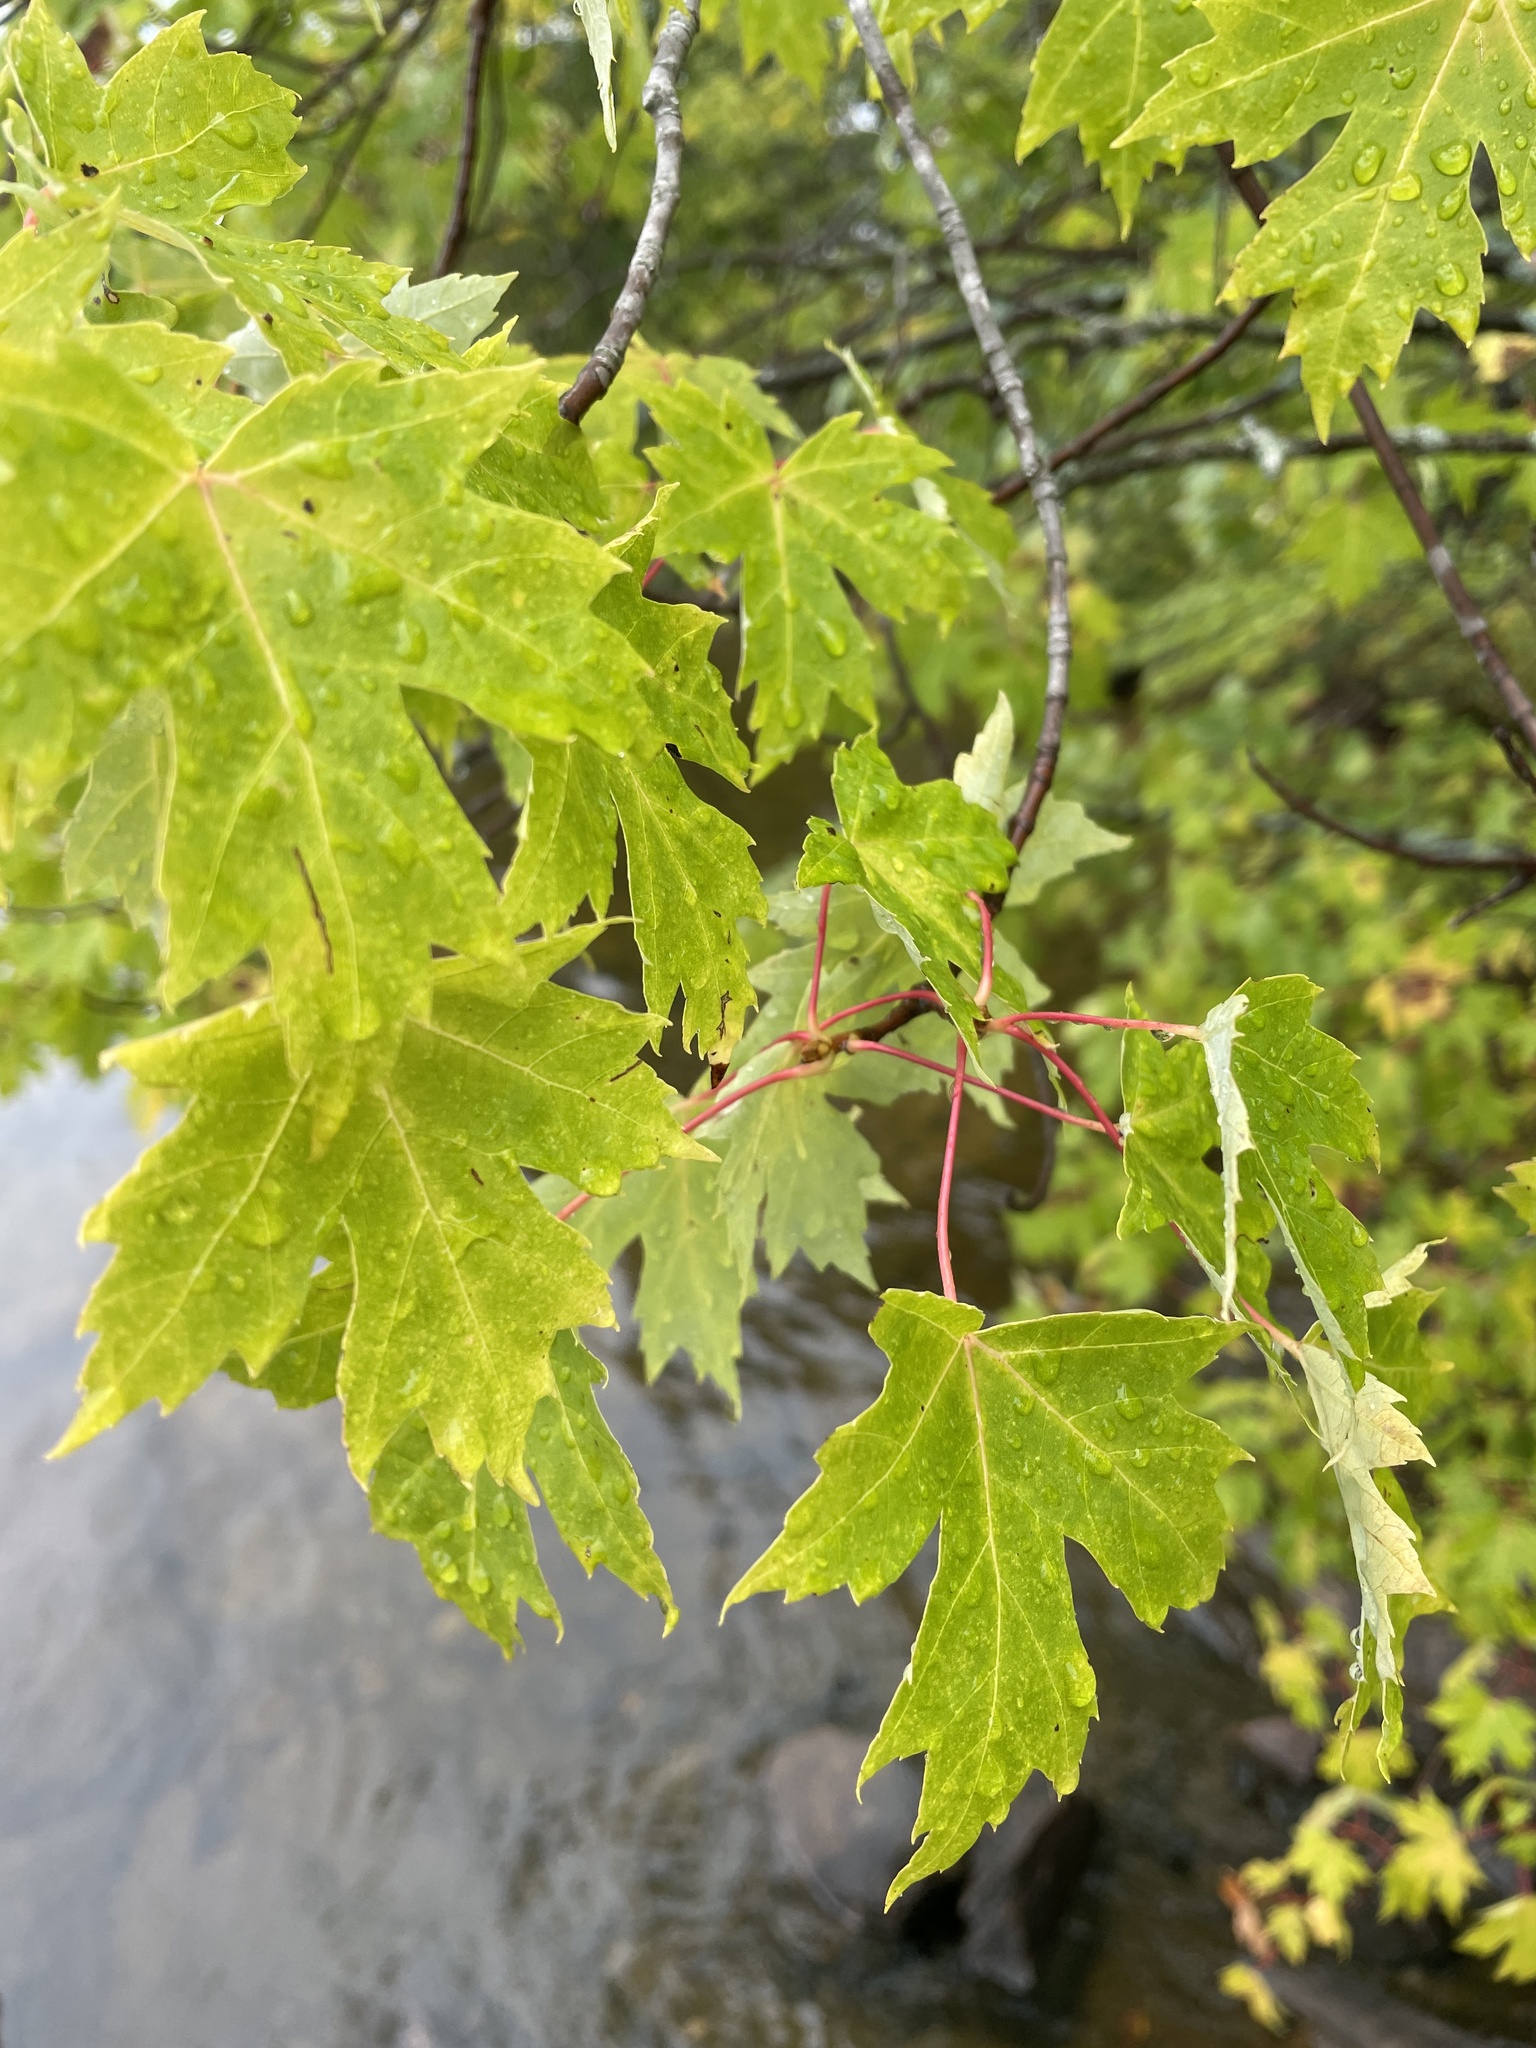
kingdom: Plantae
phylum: Tracheophyta
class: Magnoliopsida
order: Sapindales
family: Sapindaceae
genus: Acer
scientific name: Acer saccharinum
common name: Silver maple
